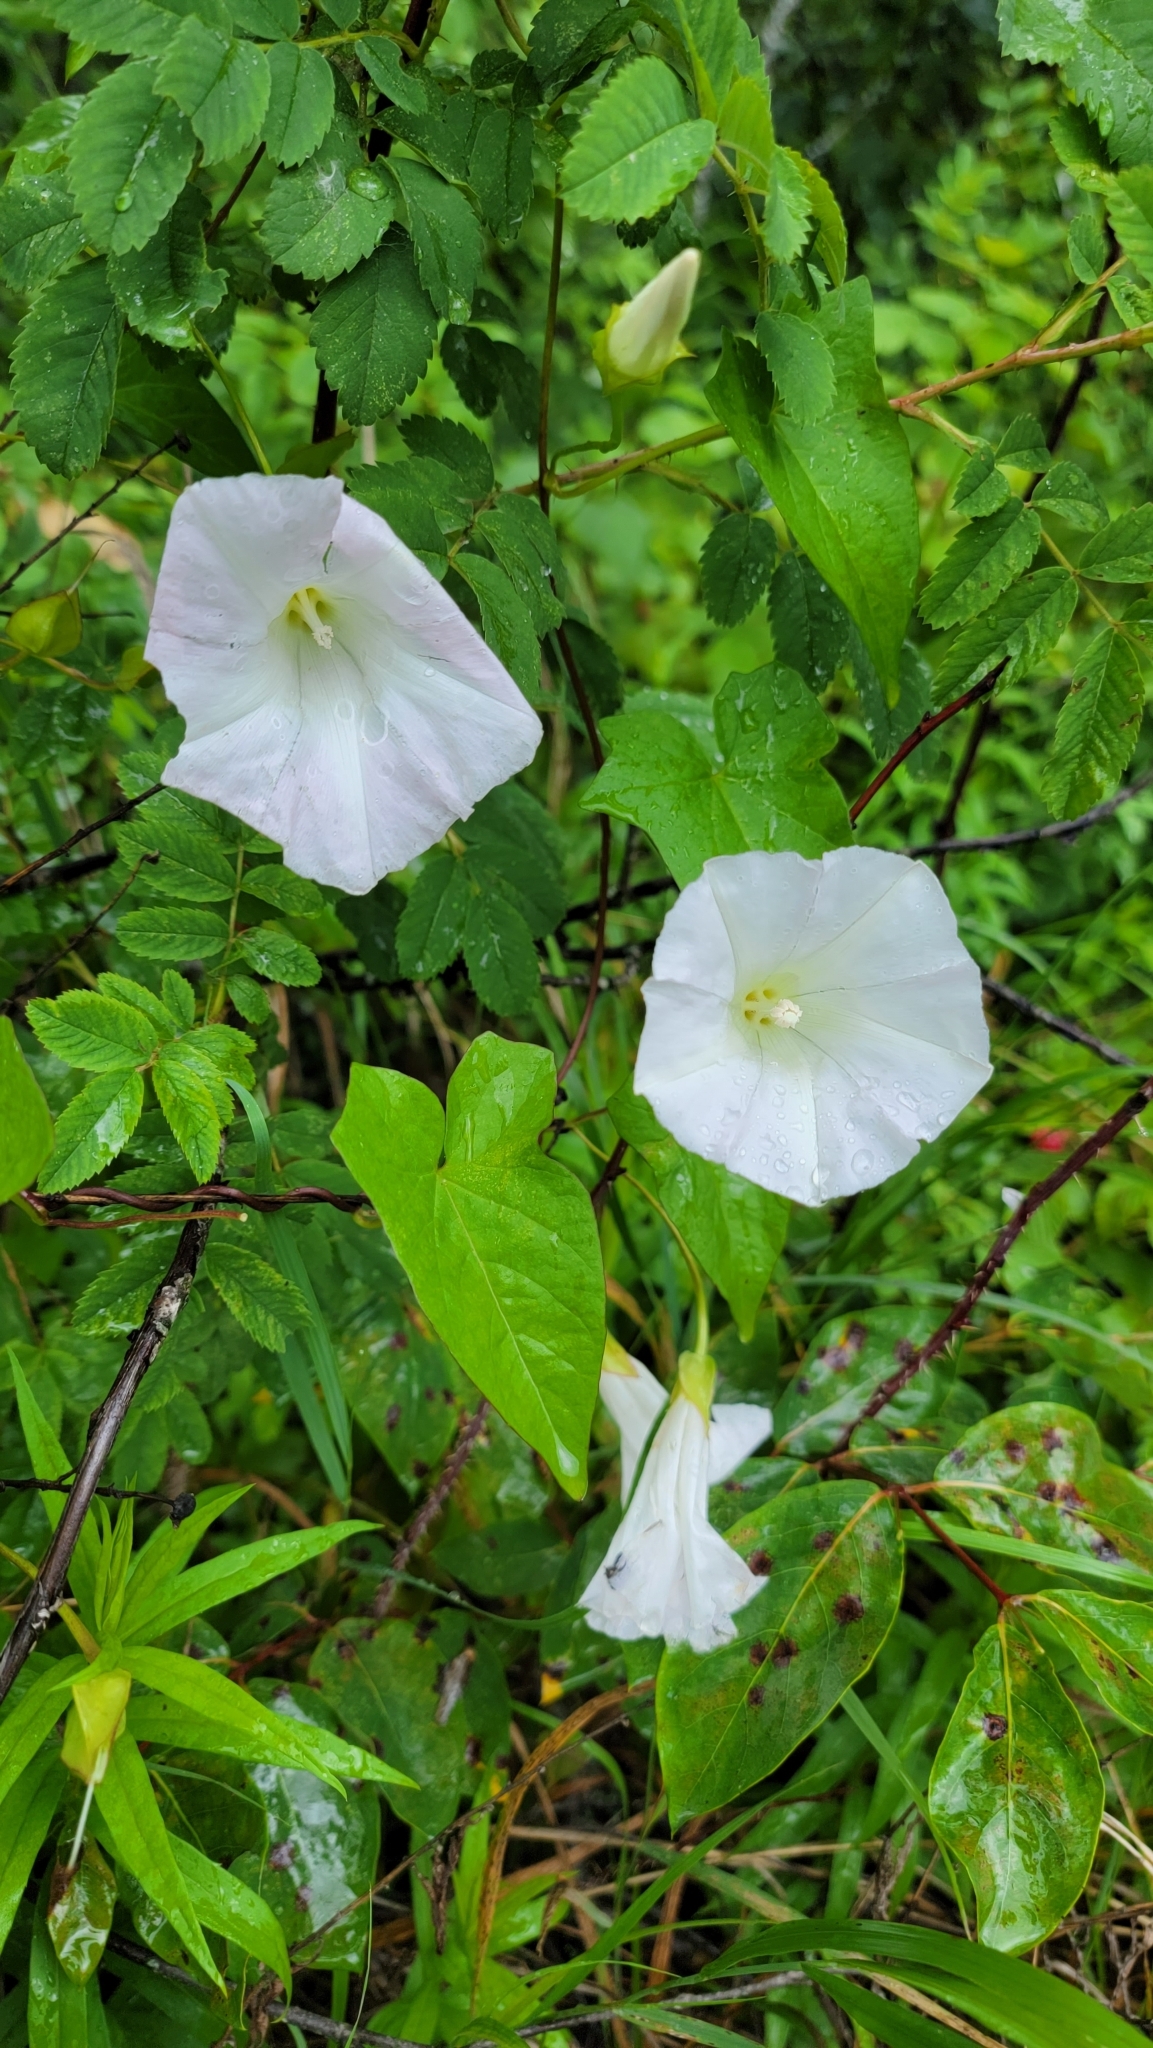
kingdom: Plantae
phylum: Tracheophyta
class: Magnoliopsida
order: Solanales
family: Convolvulaceae
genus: Calystegia
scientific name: Calystegia sepium
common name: Hedge bindweed
